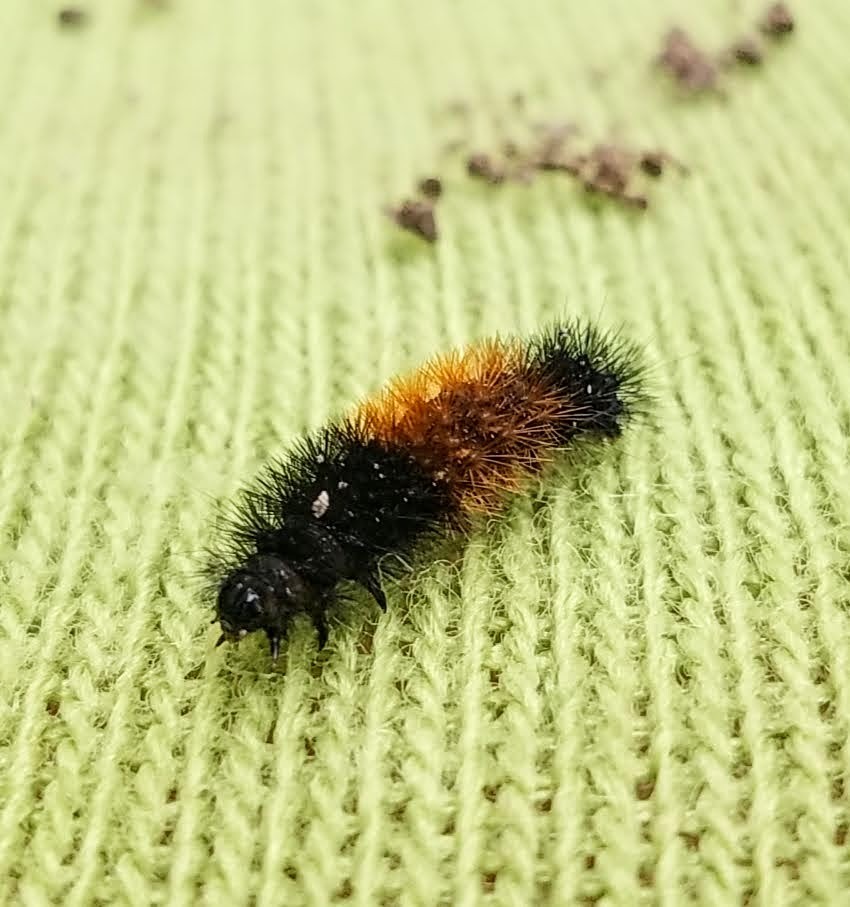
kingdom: Animalia
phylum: Arthropoda
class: Insecta
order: Lepidoptera
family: Erebidae
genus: Pyrrharctia
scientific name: Pyrrharctia isabella
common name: Isabella tiger moth
